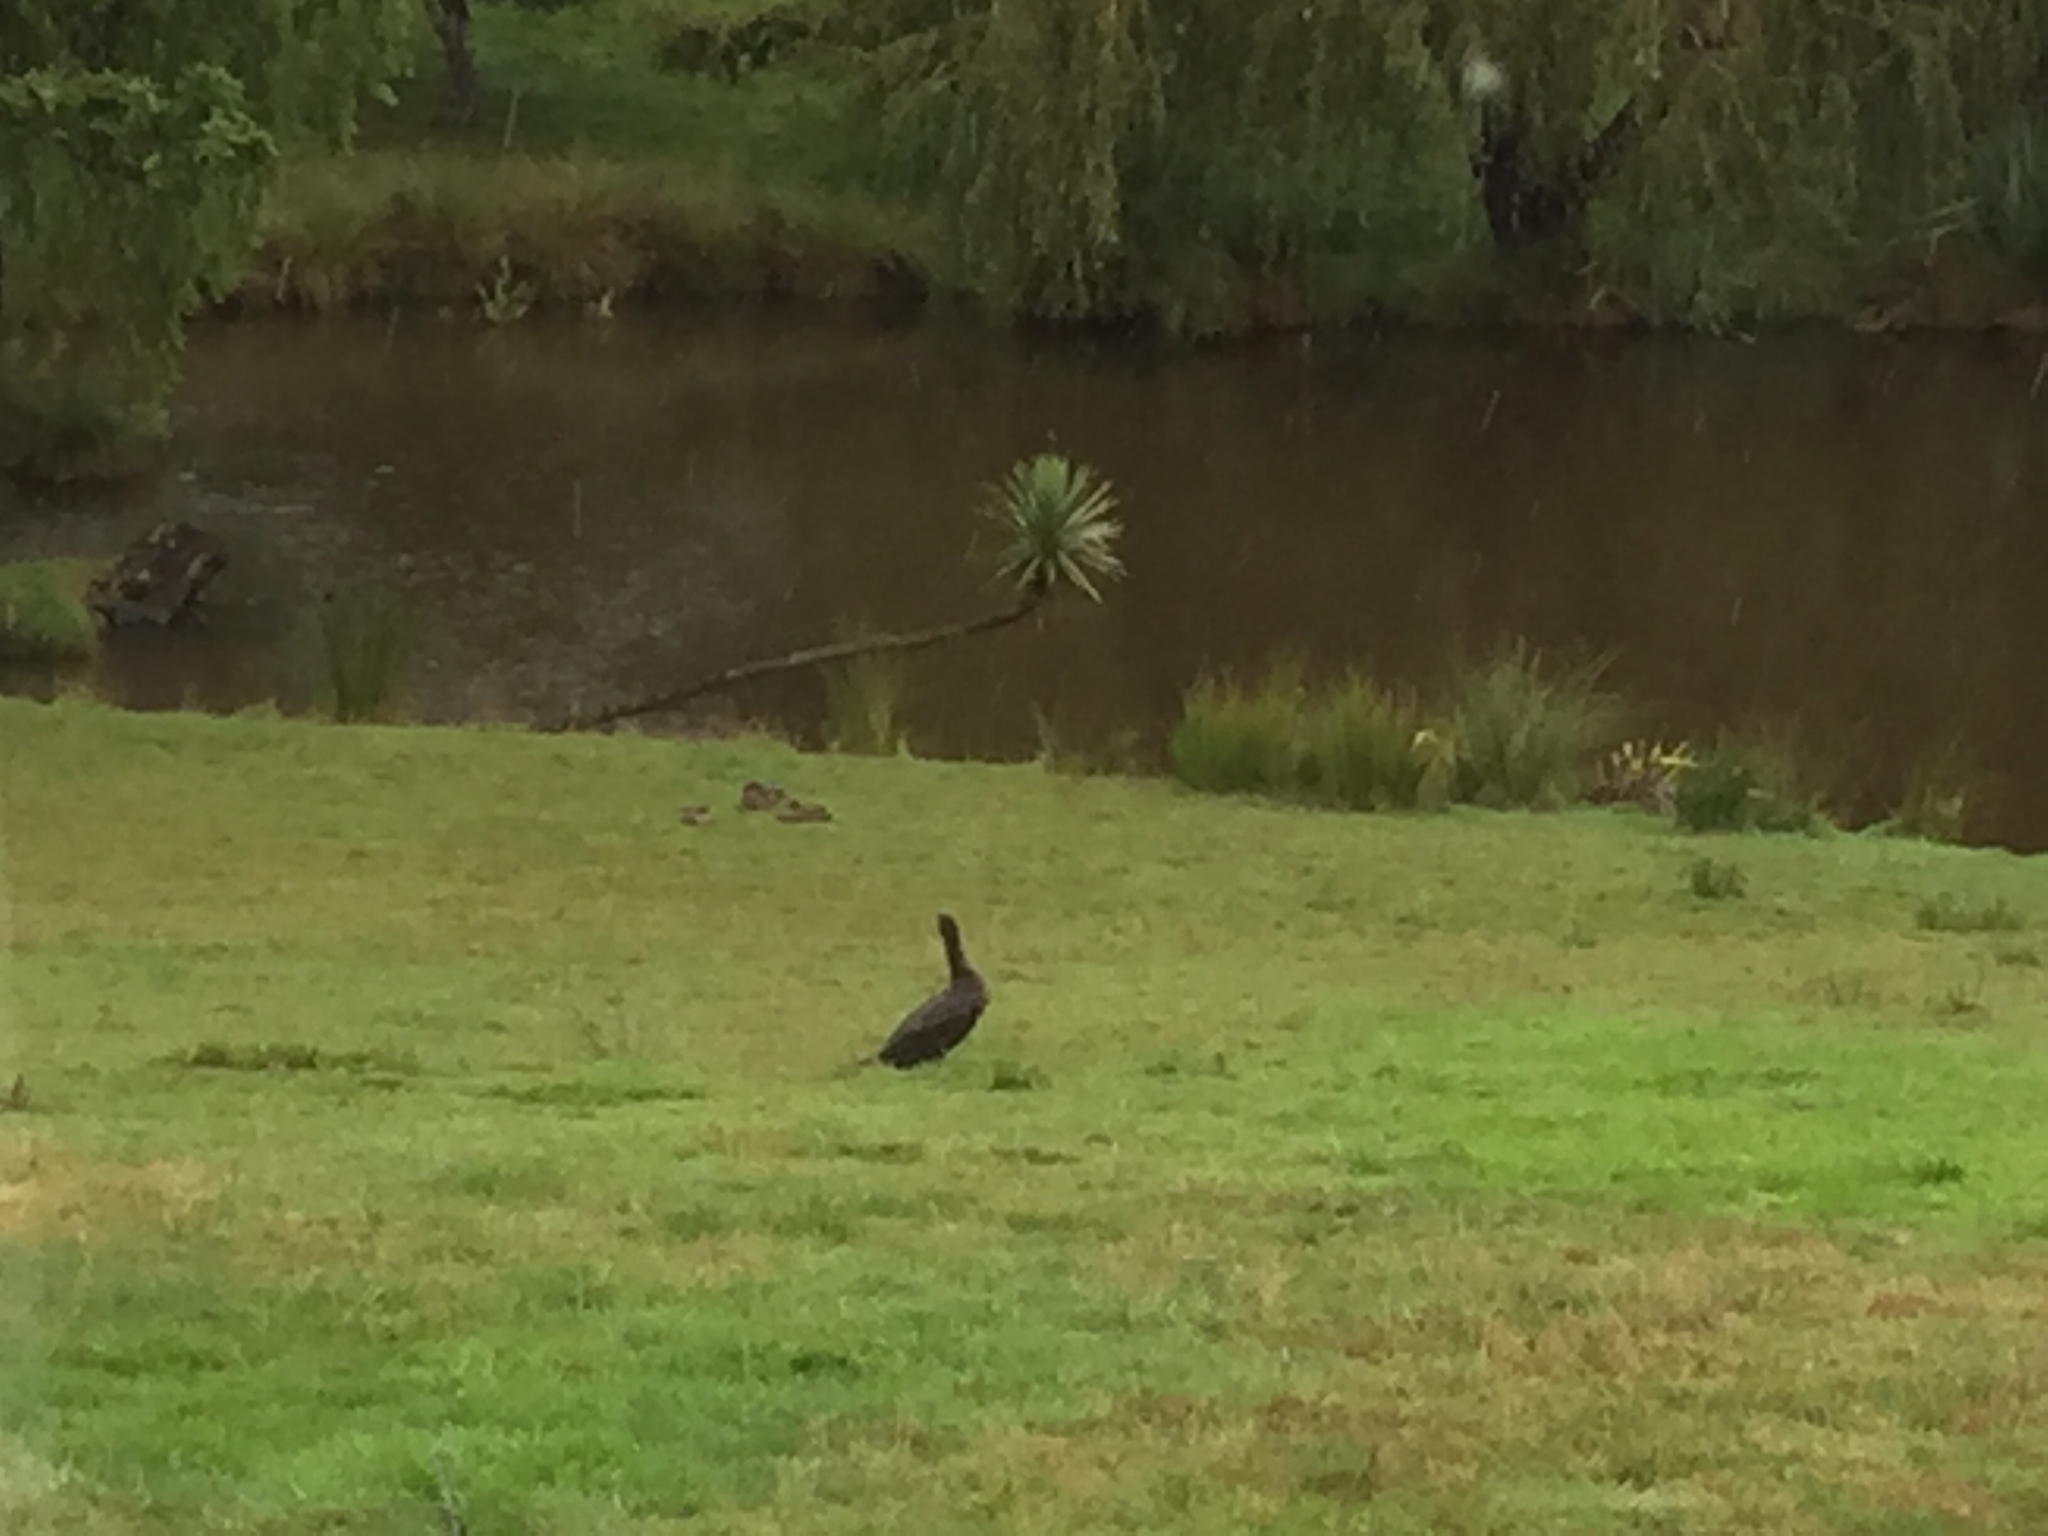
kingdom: Animalia
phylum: Chordata
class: Aves
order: Suliformes
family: Phalacrocoracidae
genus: Phalacrocorax
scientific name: Phalacrocorax carbo
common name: Great cormorant
